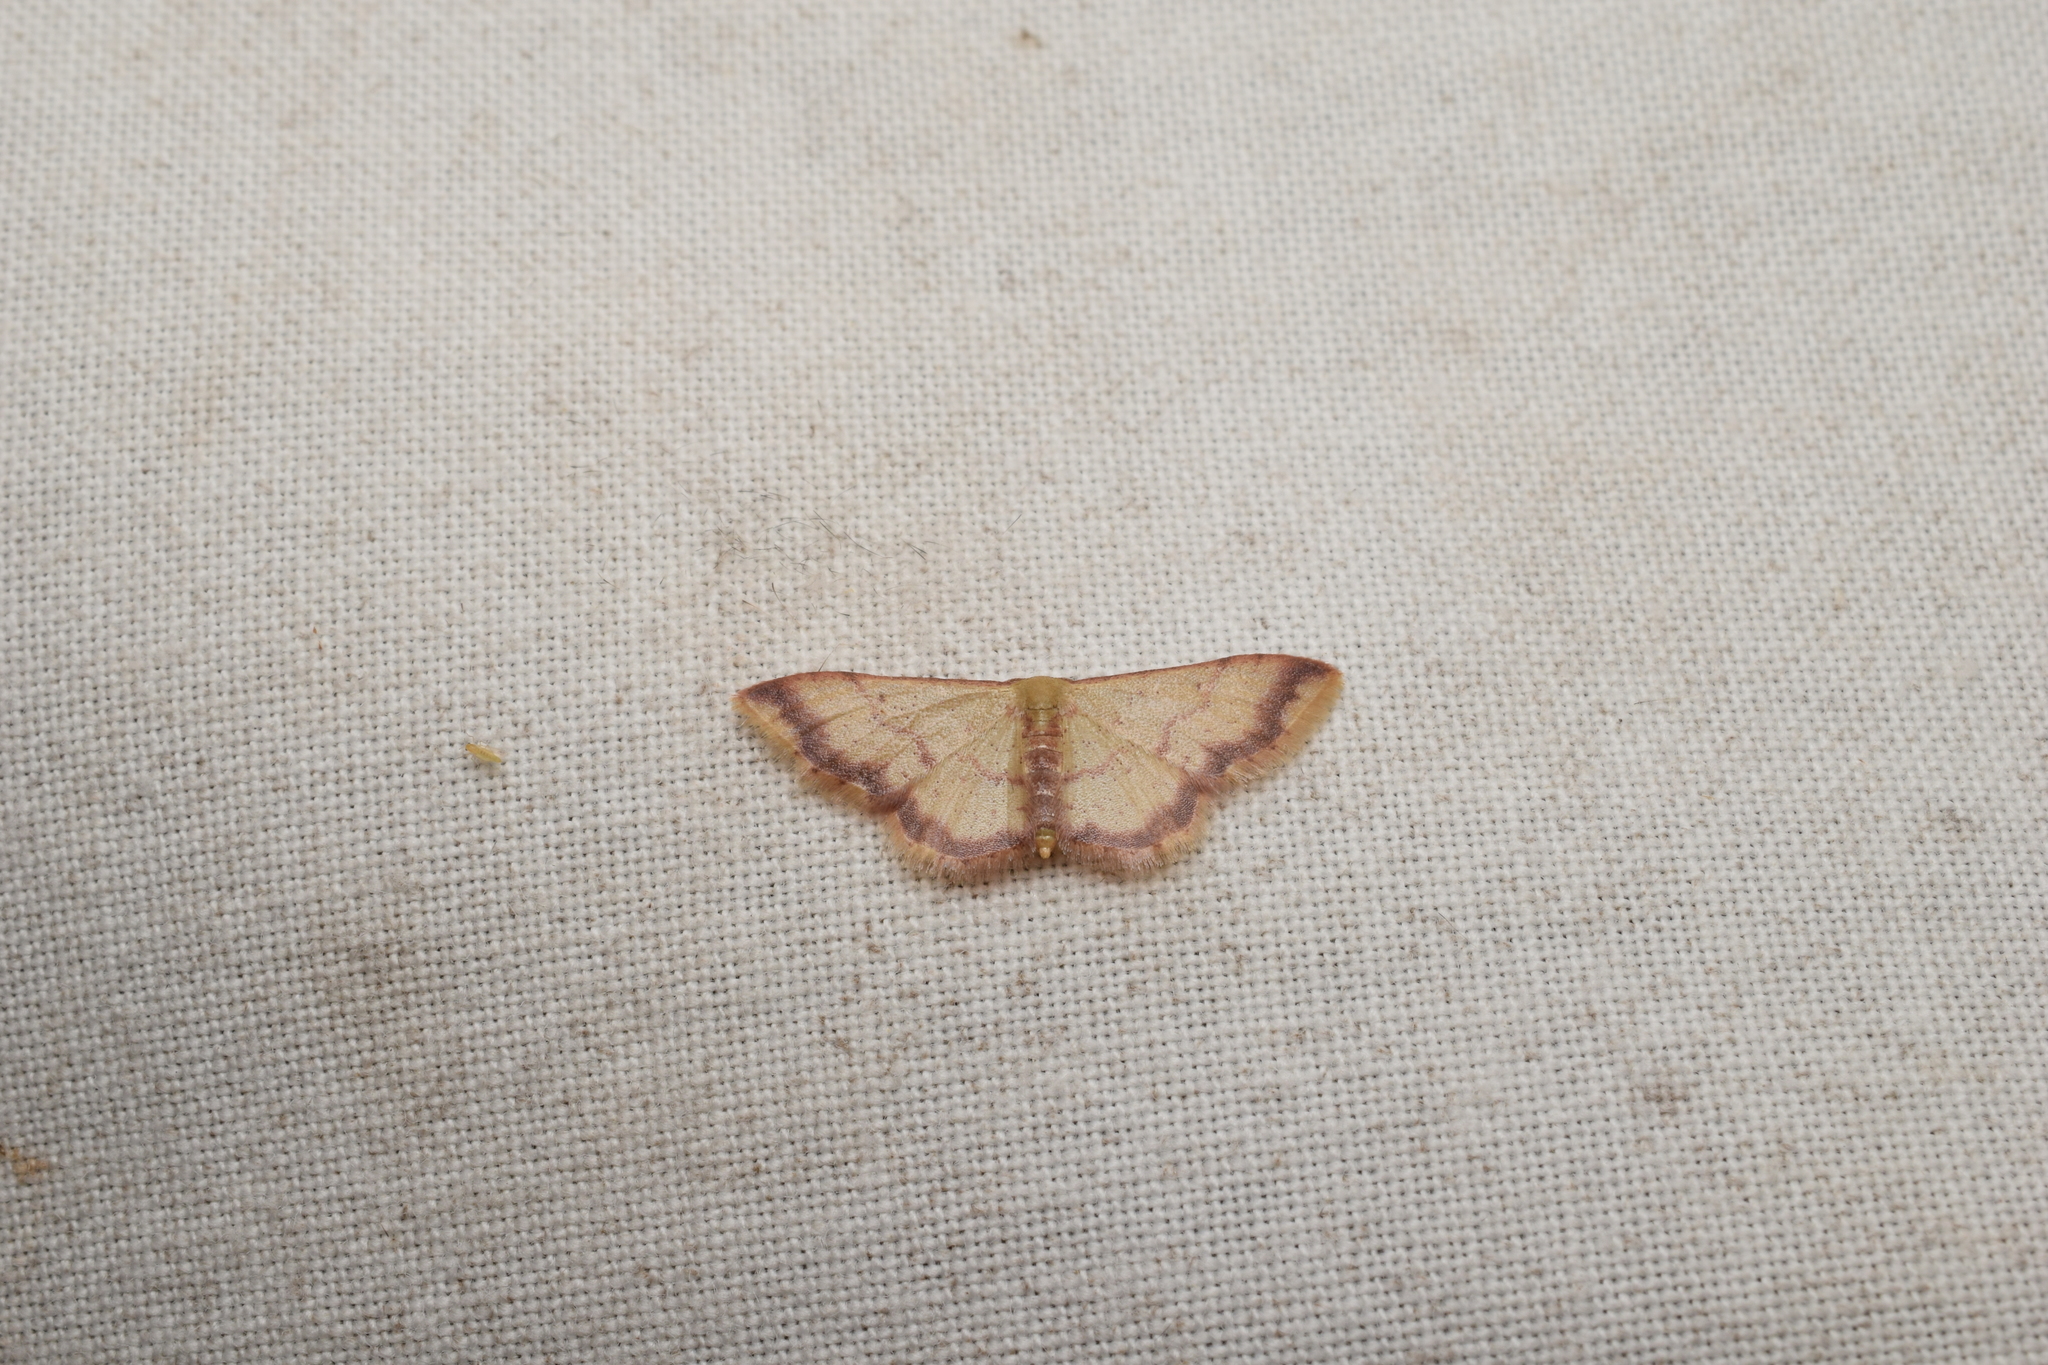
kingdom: Animalia
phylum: Arthropoda
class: Insecta
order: Lepidoptera
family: Geometridae
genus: Idaea
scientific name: Idaea impexa
